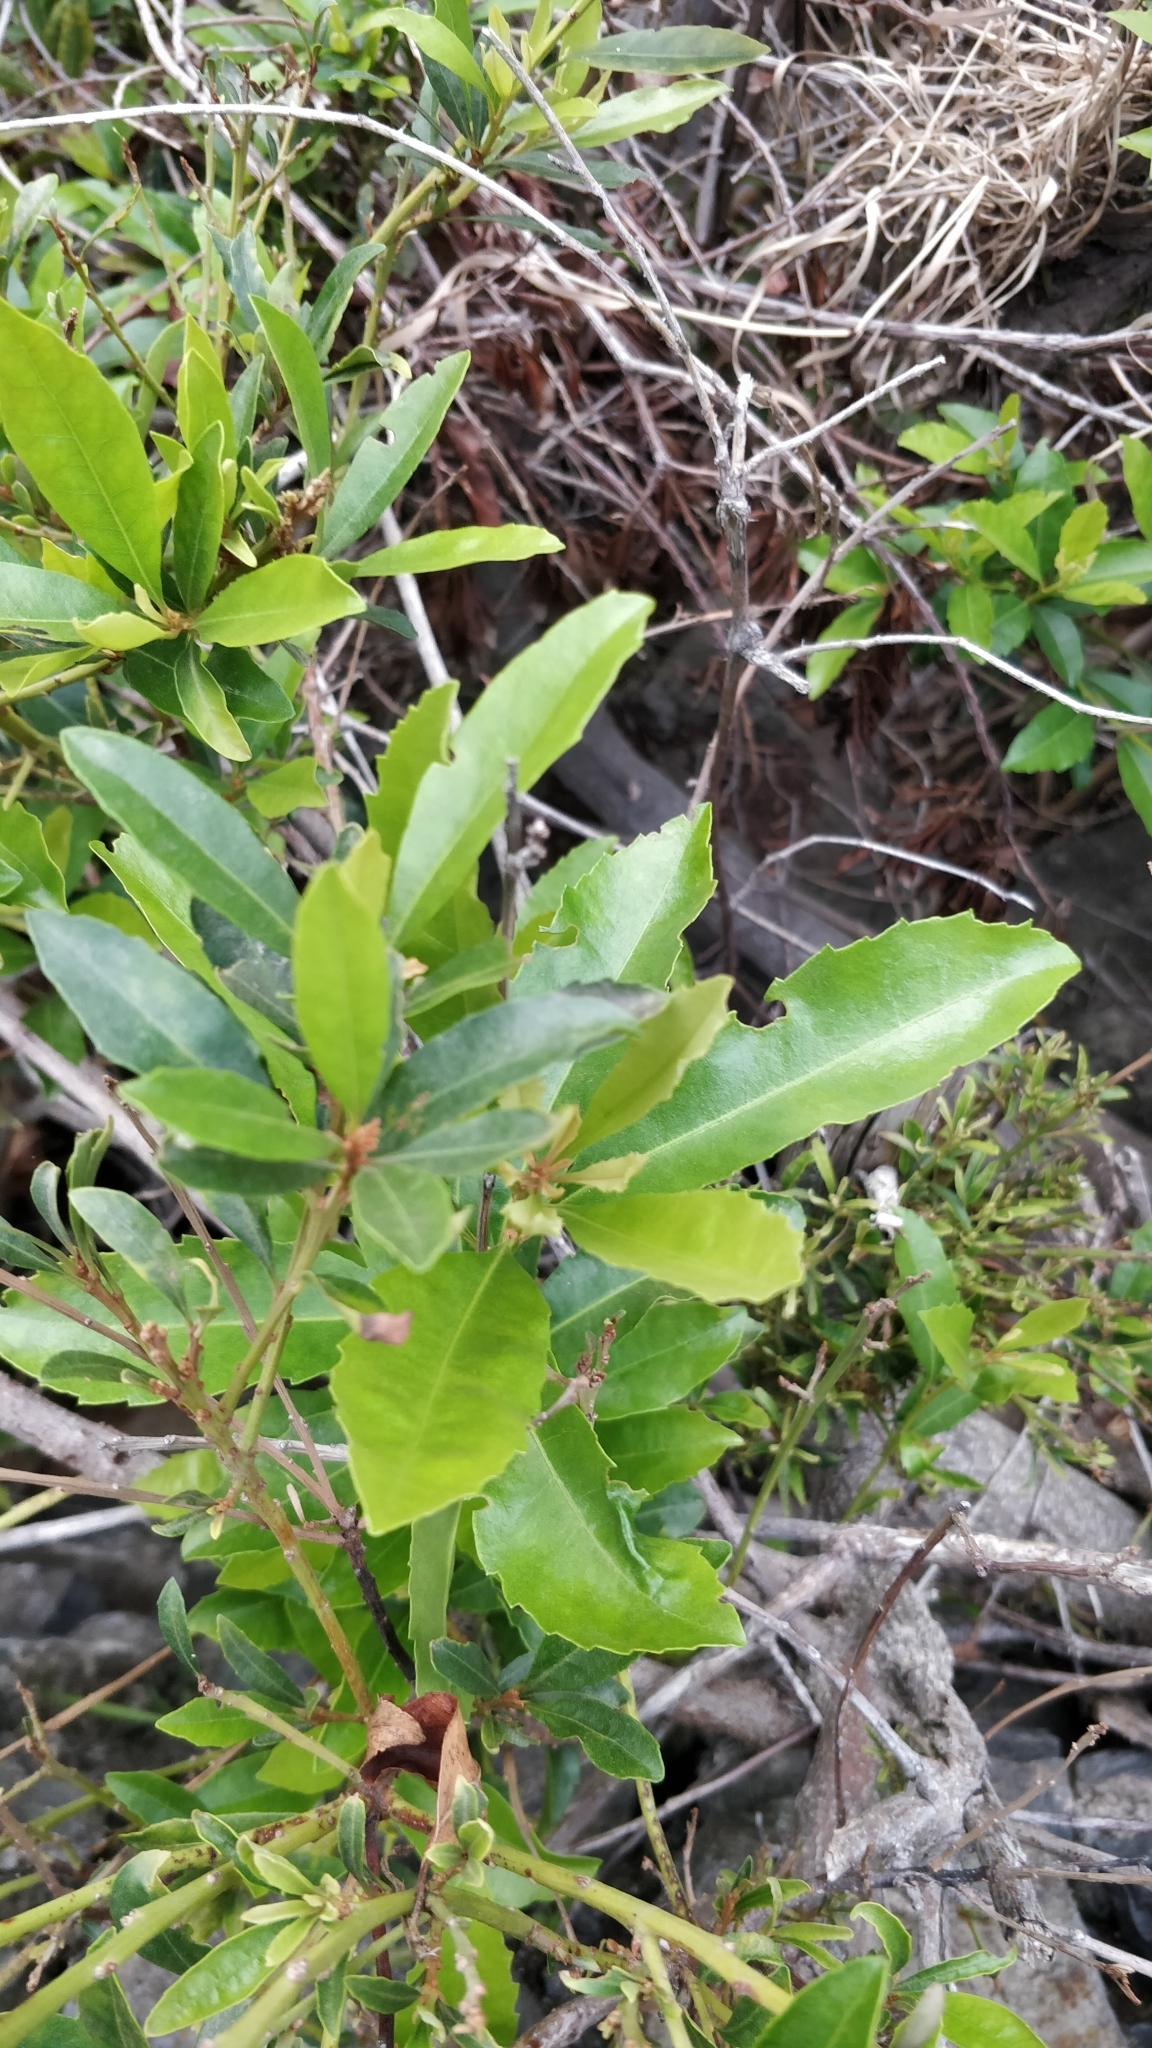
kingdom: Plantae
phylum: Tracheophyta
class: Magnoliopsida
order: Fagales
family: Myricaceae
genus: Morella
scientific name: Morella faya
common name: Firetree
